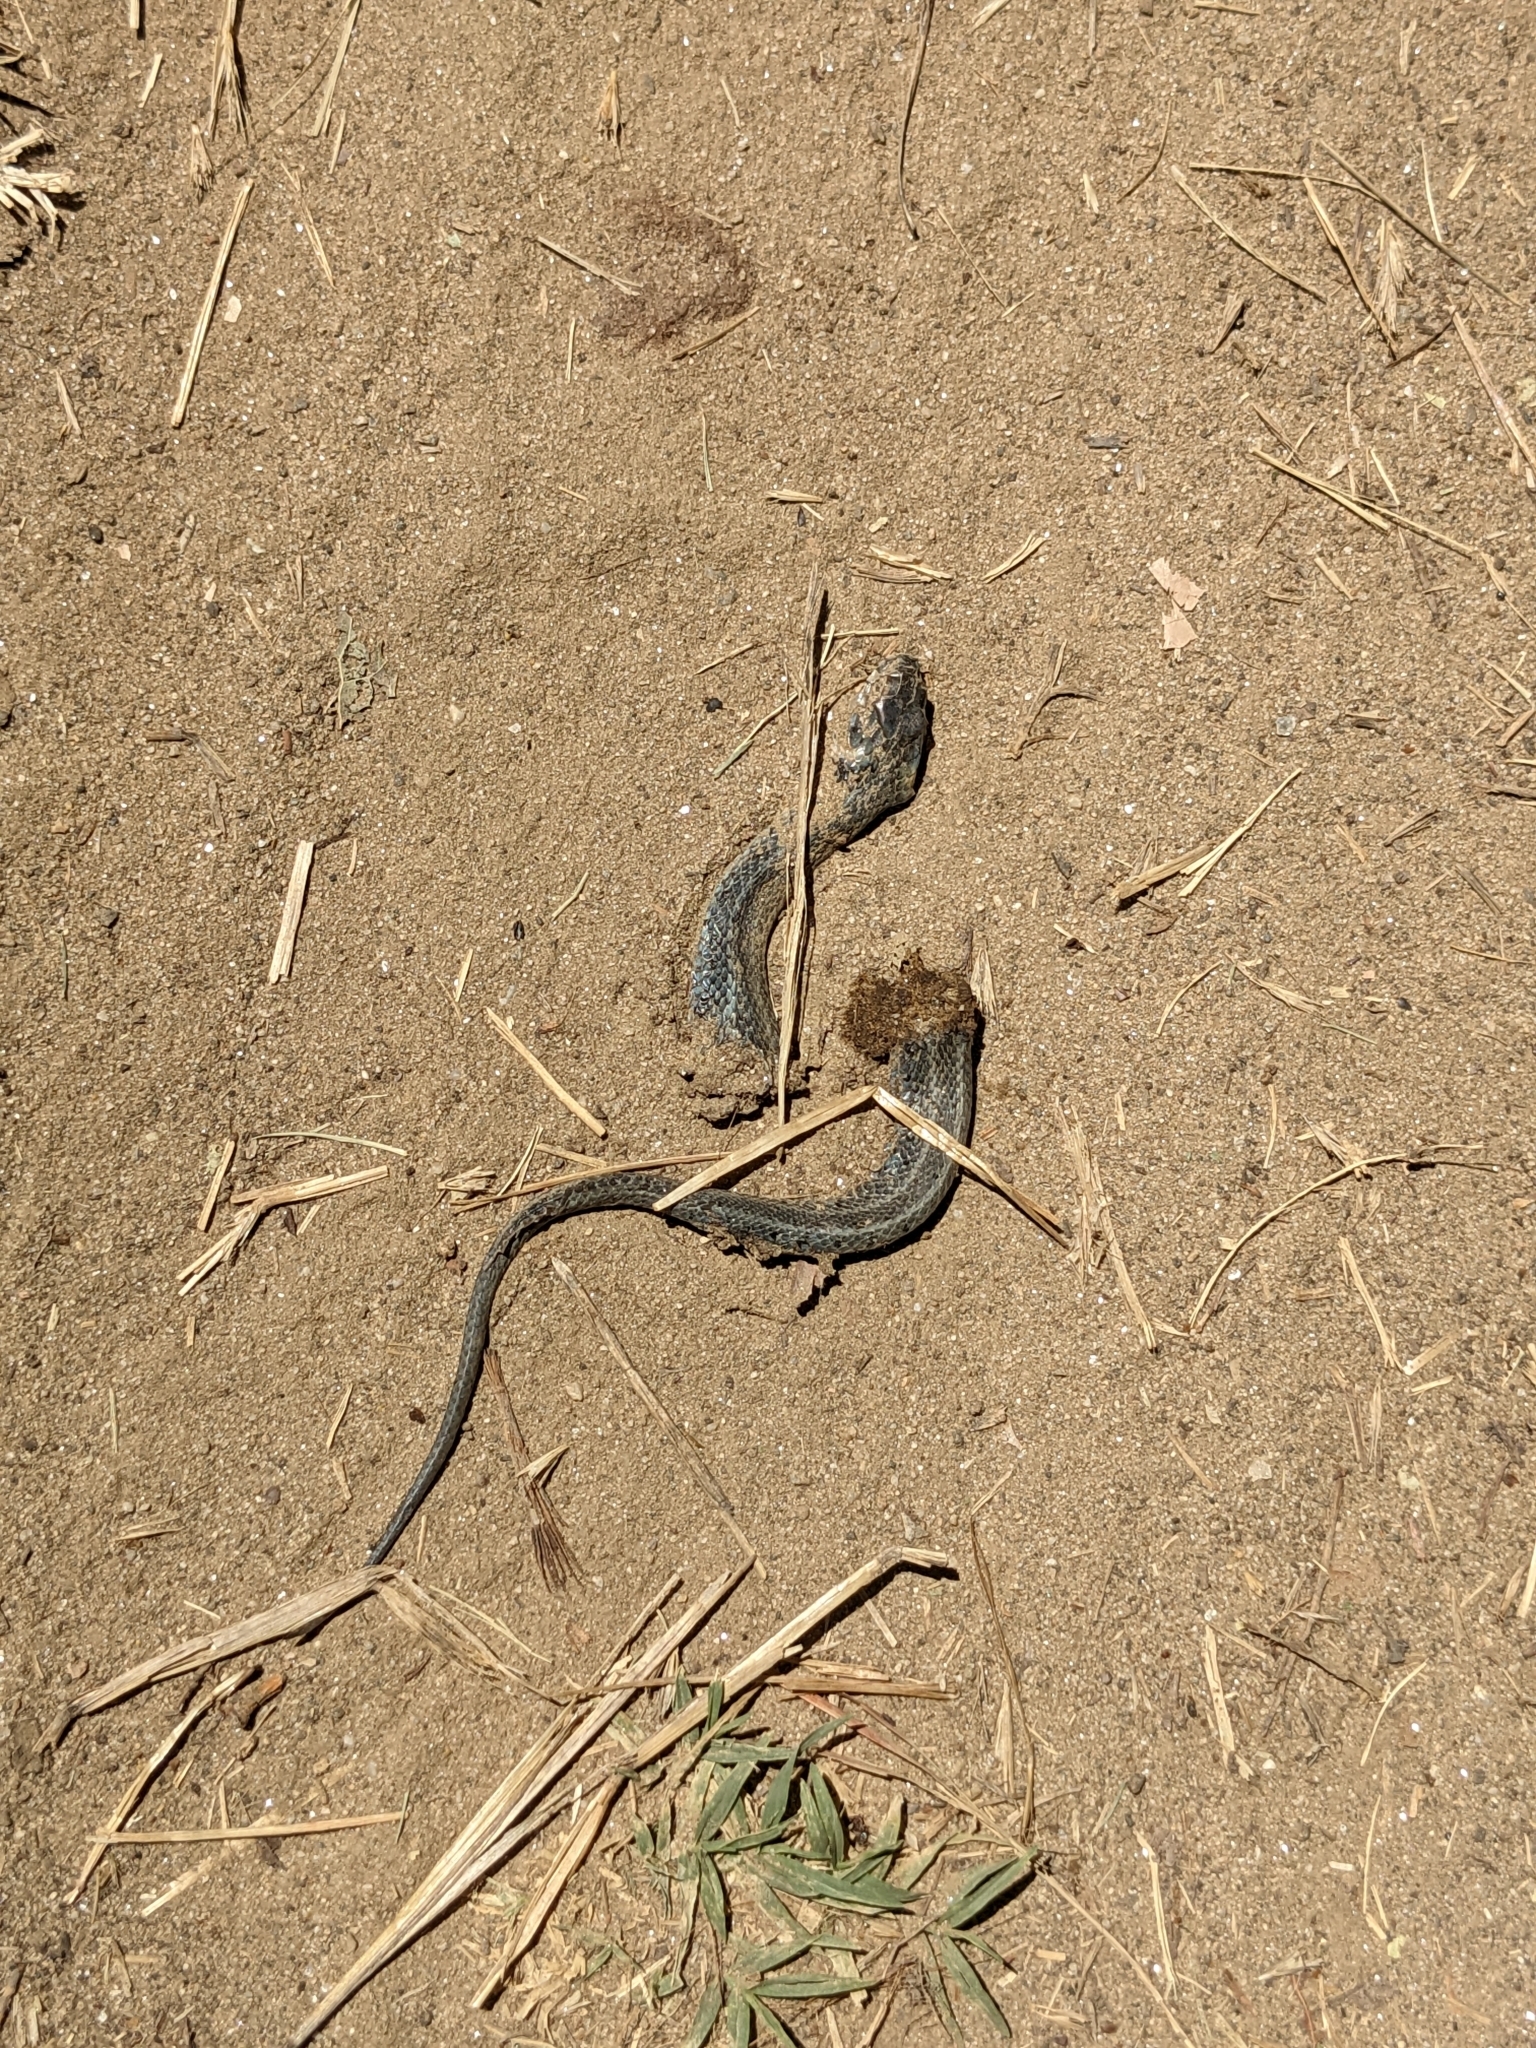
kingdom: Animalia
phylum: Chordata
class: Squamata
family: Colubridae
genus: Natrix
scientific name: Natrix natrix
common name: Grass snake
